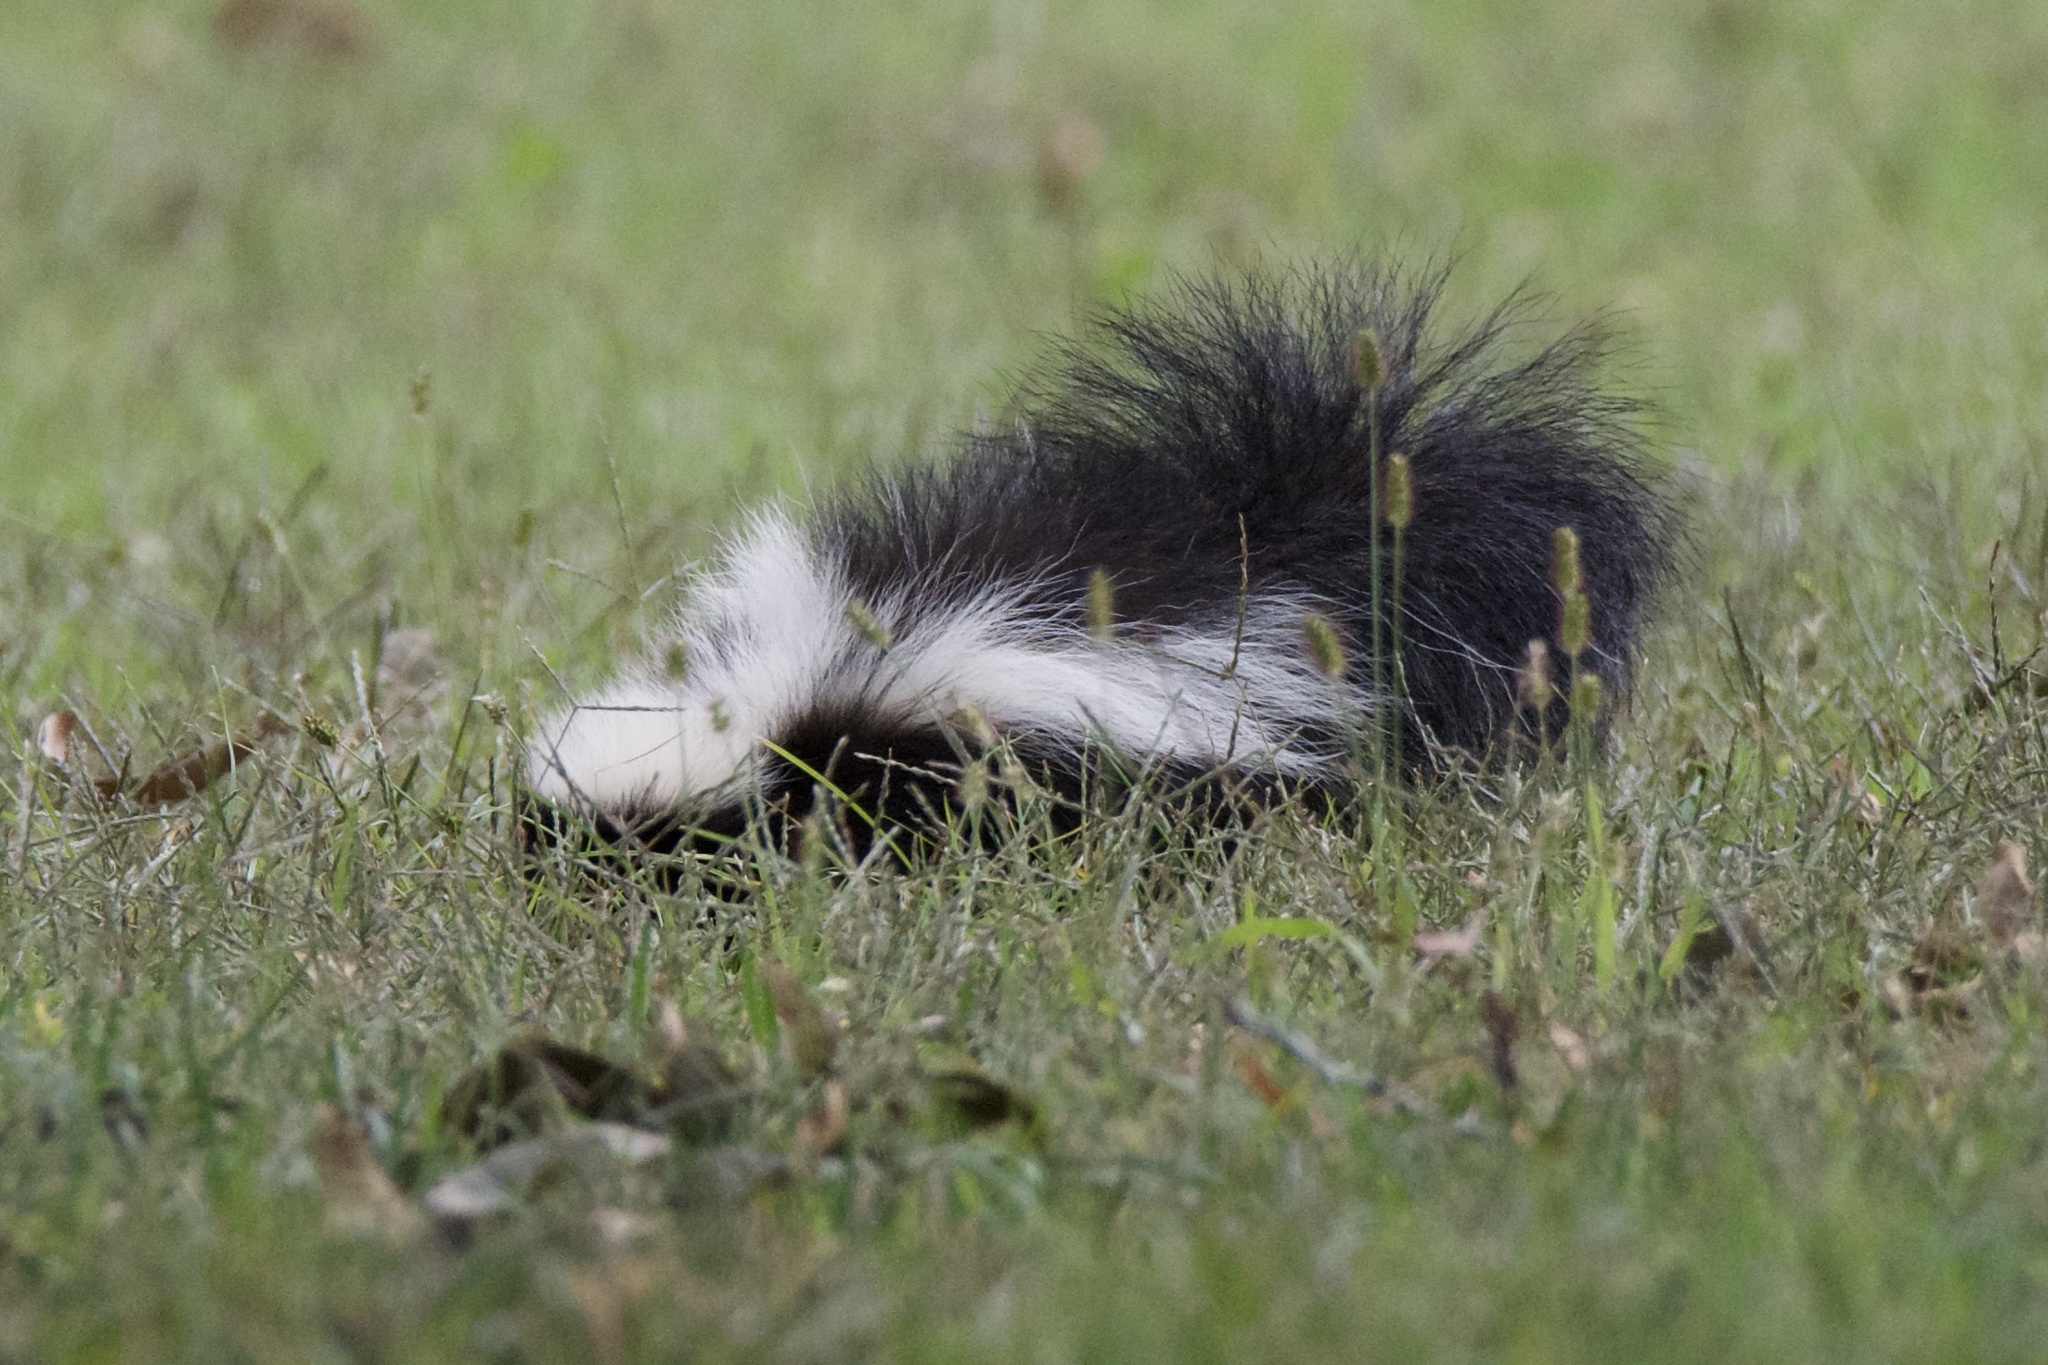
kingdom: Animalia
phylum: Chordata
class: Mammalia
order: Carnivora
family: Mephitidae
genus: Mephitis
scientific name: Mephitis mephitis
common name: Striped skunk
